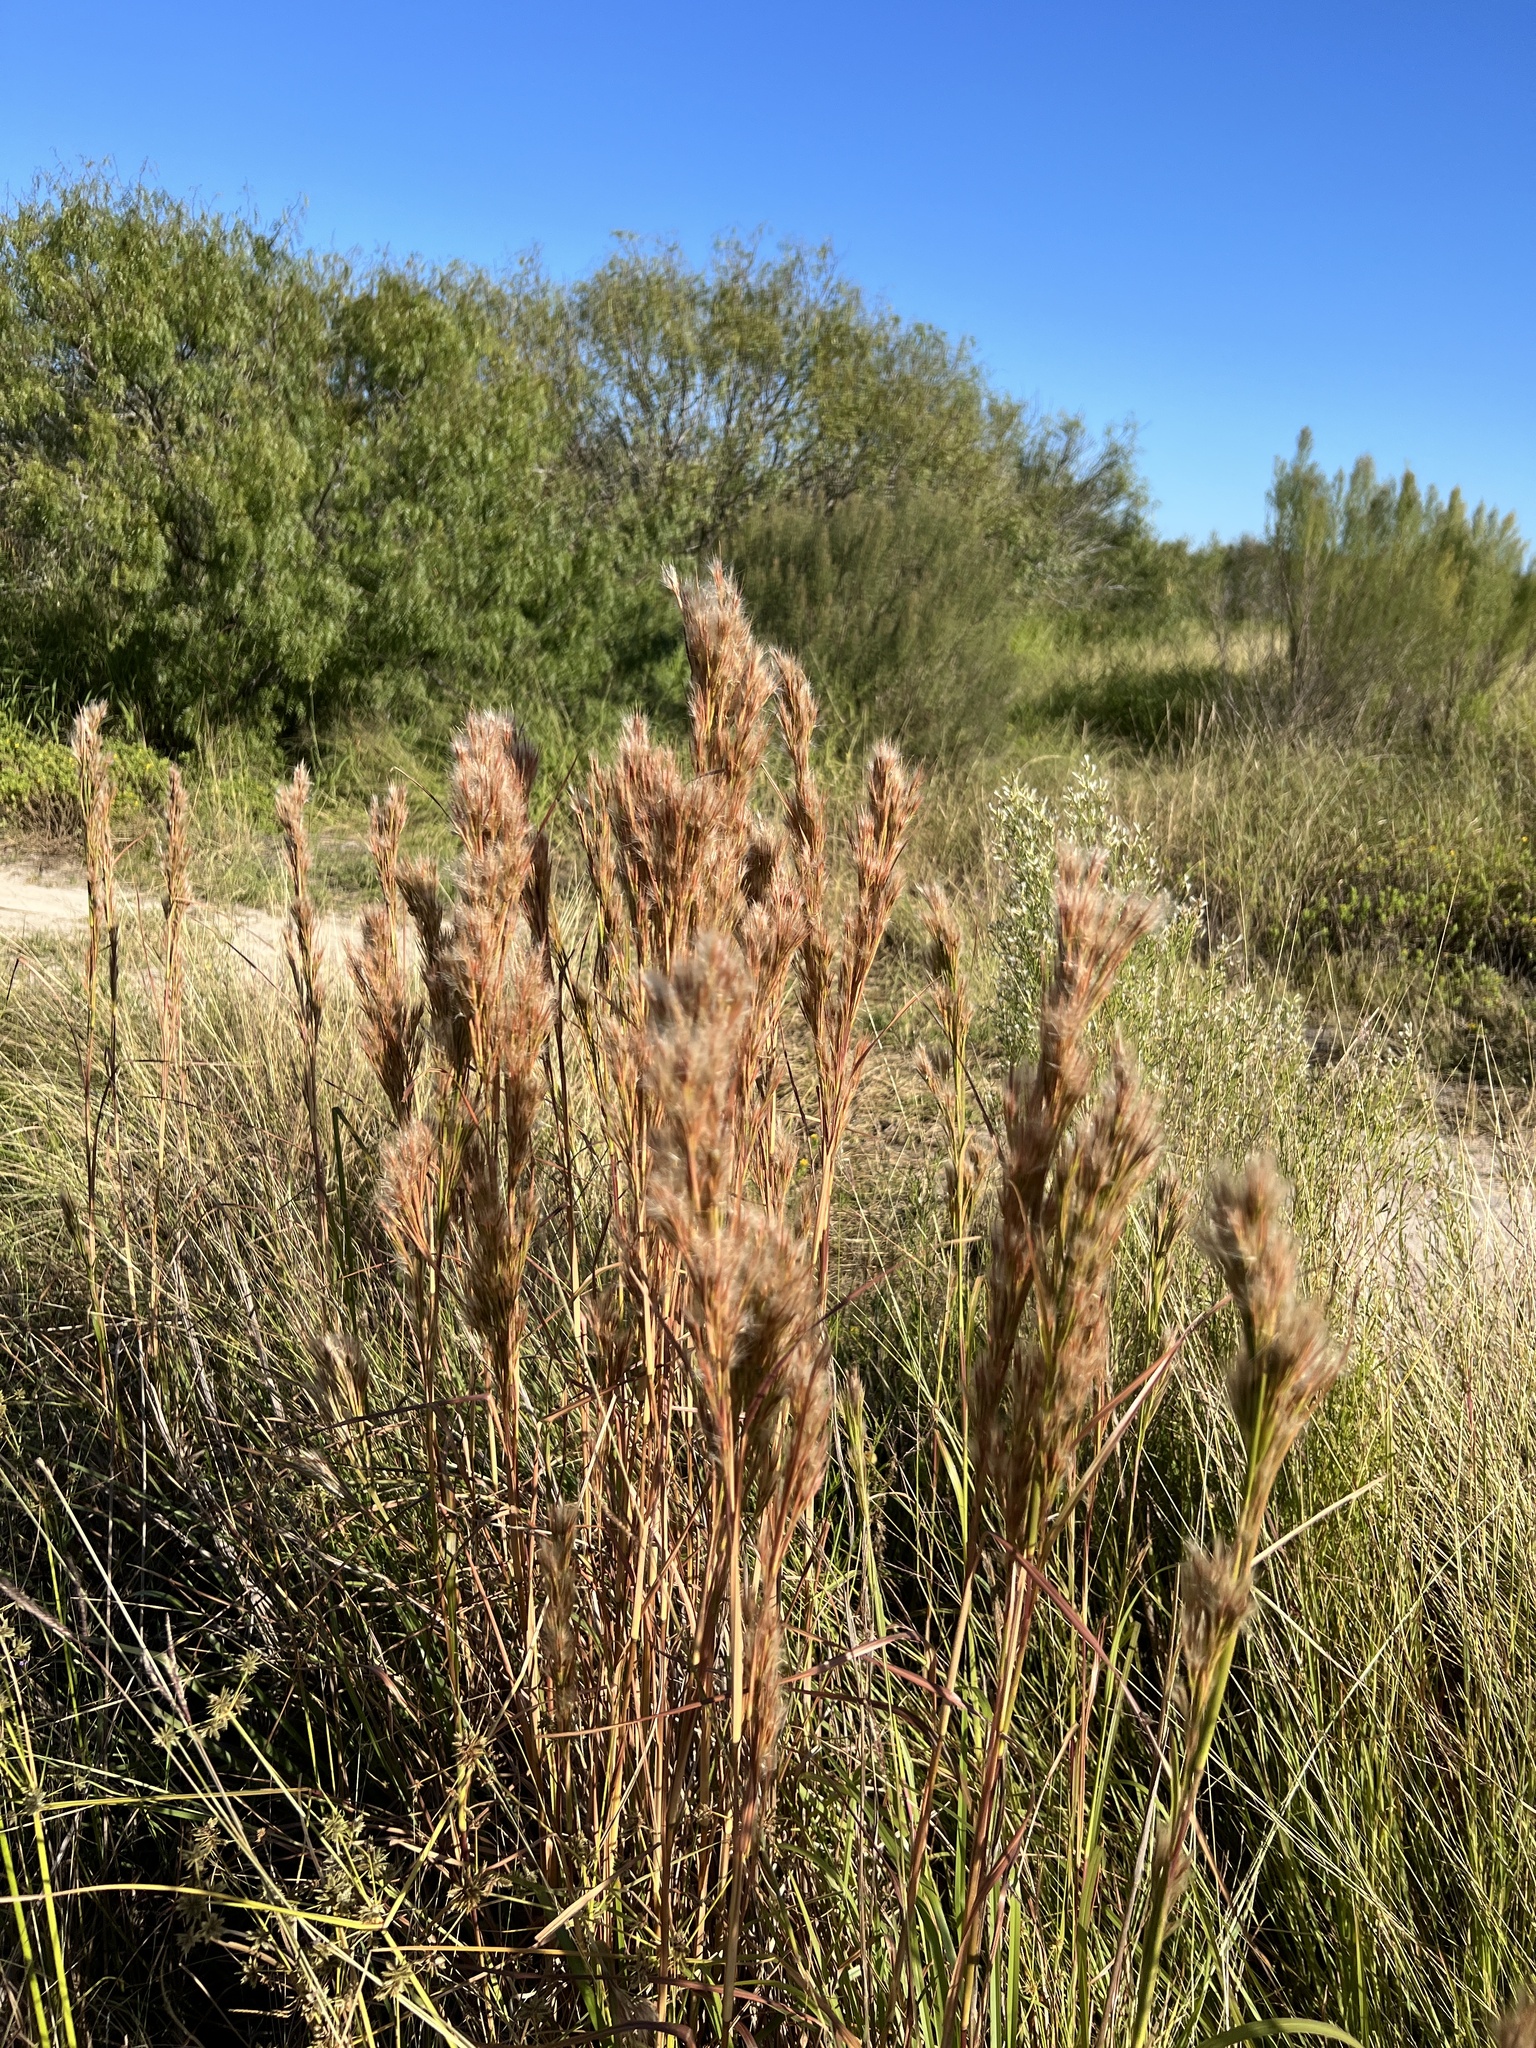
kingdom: Plantae
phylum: Tracheophyta
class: Liliopsida
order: Poales
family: Poaceae
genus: Andropogon
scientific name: Andropogon tenuispatheus
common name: Bushy bluestem
